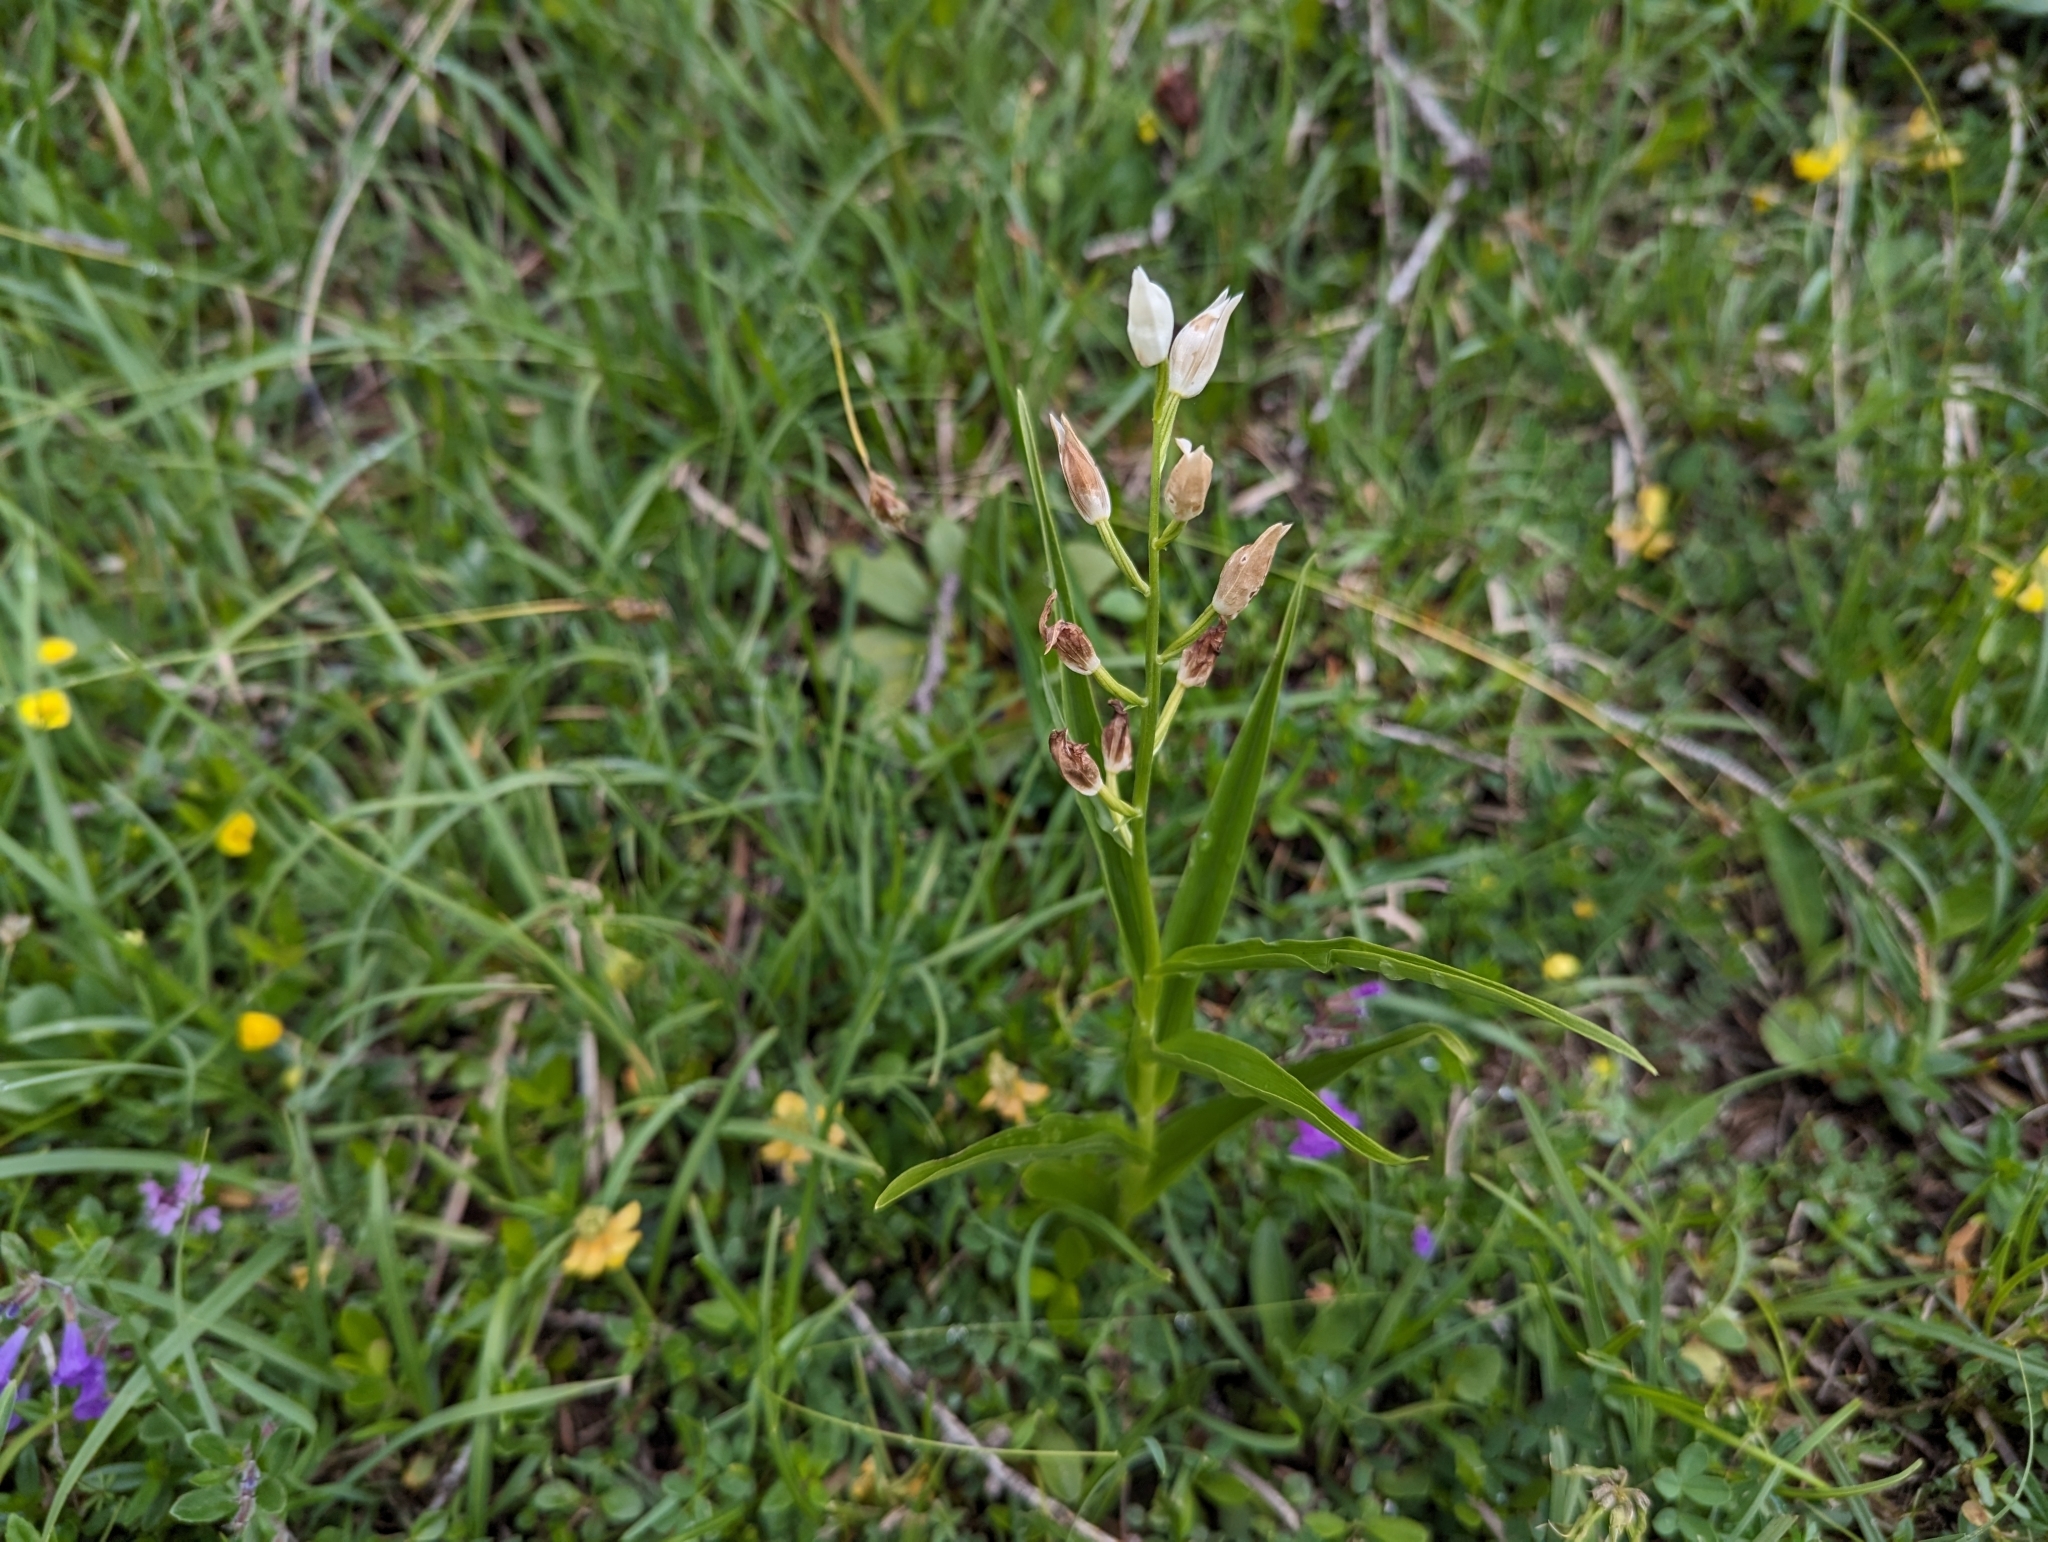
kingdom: Plantae
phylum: Tracheophyta
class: Liliopsida
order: Asparagales
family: Orchidaceae
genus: Cephalanthera
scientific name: Cephalanthera longifolia
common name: Narrow-leaved helleborine
